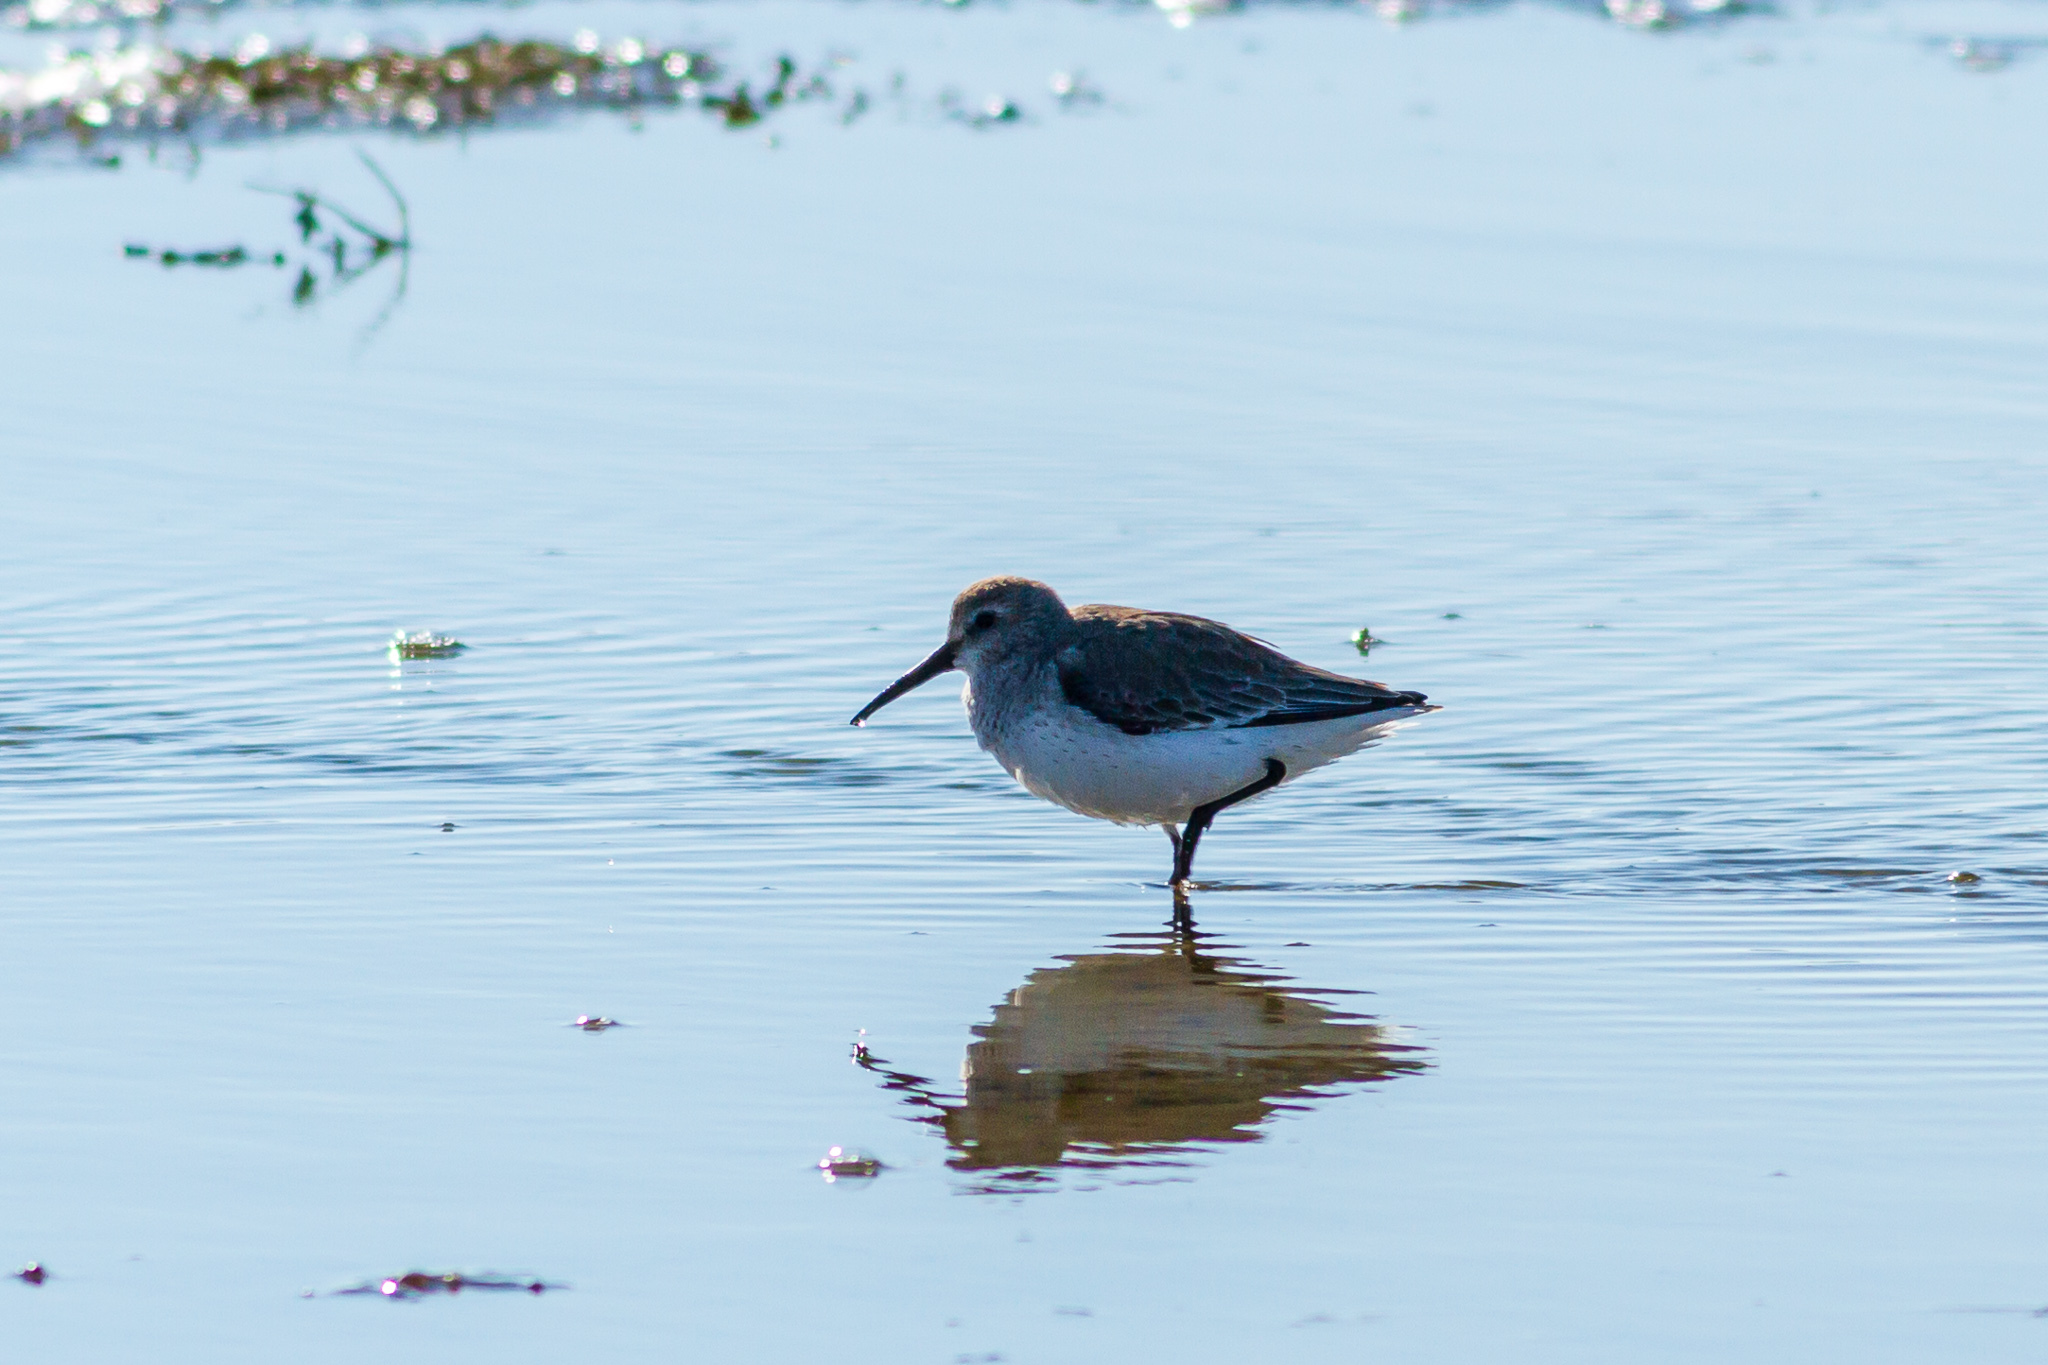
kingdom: Animalia
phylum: Chordata
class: Aves
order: Charadriiformes
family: Scolopacidae
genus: Calidris
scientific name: Calidris alpina
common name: Dunlin
